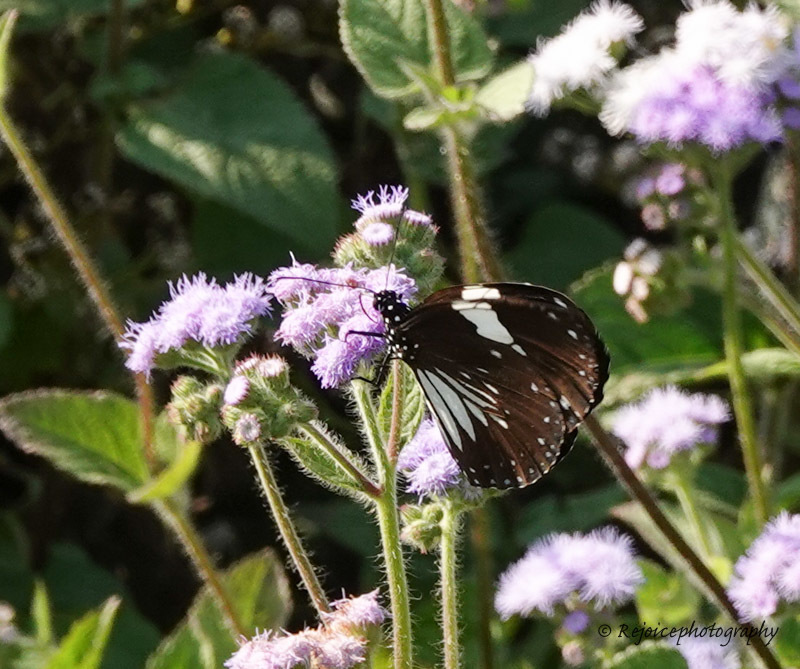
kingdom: Animalia
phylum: Arthropoda
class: Insecta
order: Lepidoptera
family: Nymphalidae
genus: Euploea
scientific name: Euploea radamanthus
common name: Magpie crow butterfly
